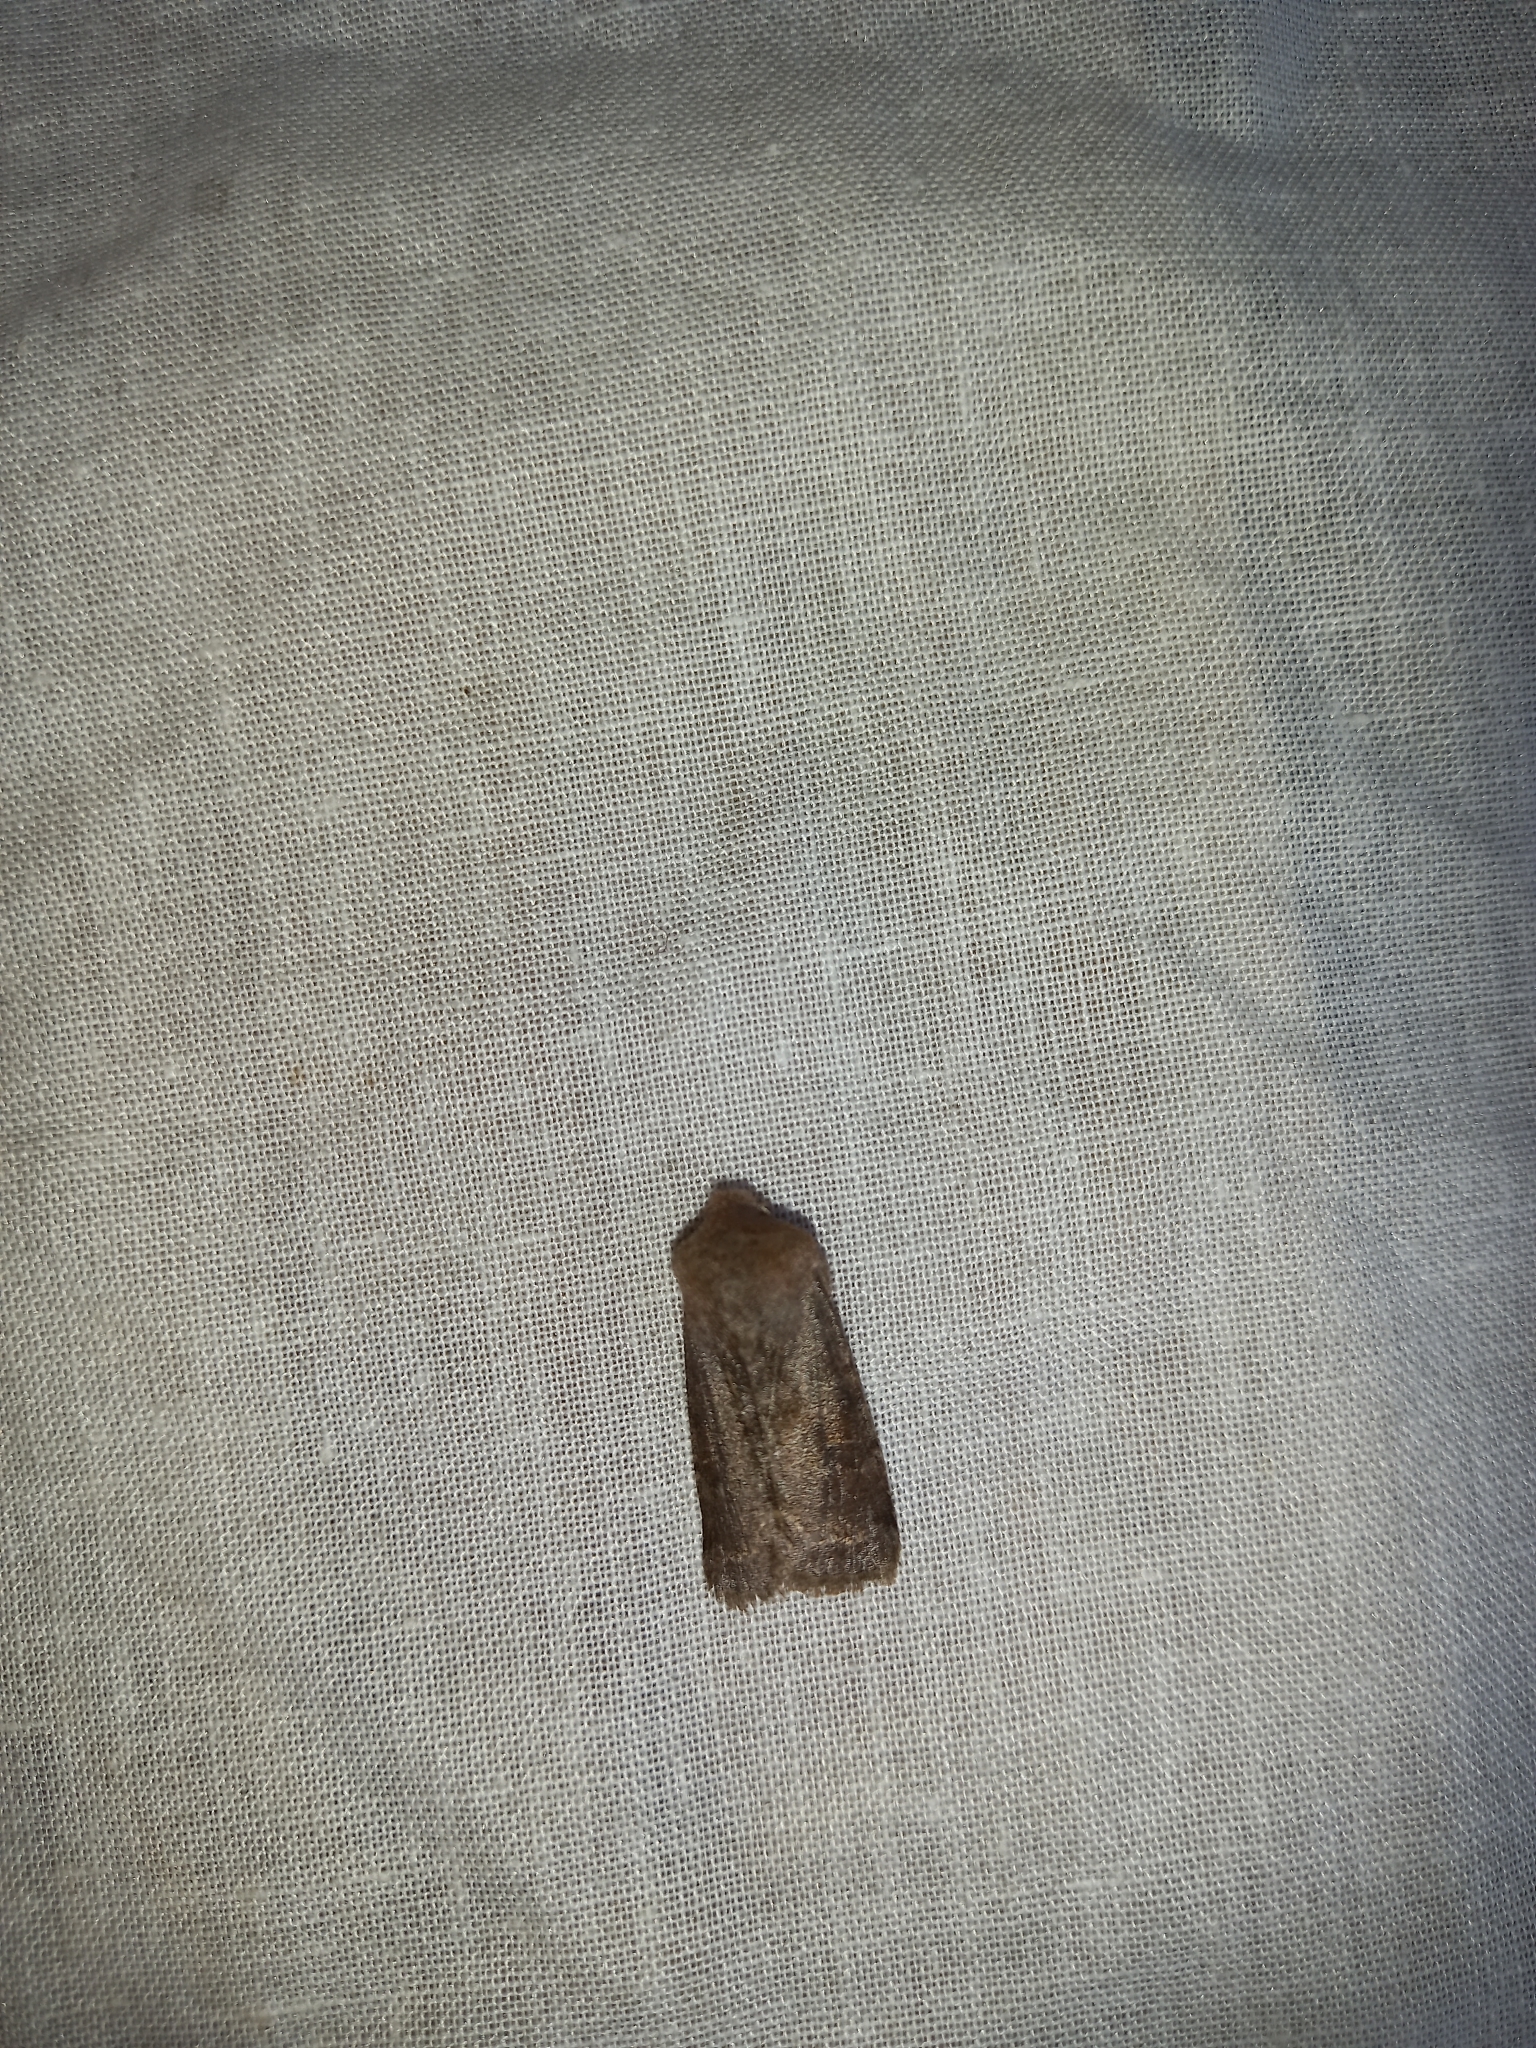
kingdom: Animalia
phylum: Arthropoda
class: Insecta
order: Lepidoptera
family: Noctuidae
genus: Orthosia
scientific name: Orthosia incerta
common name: Clouded drab
